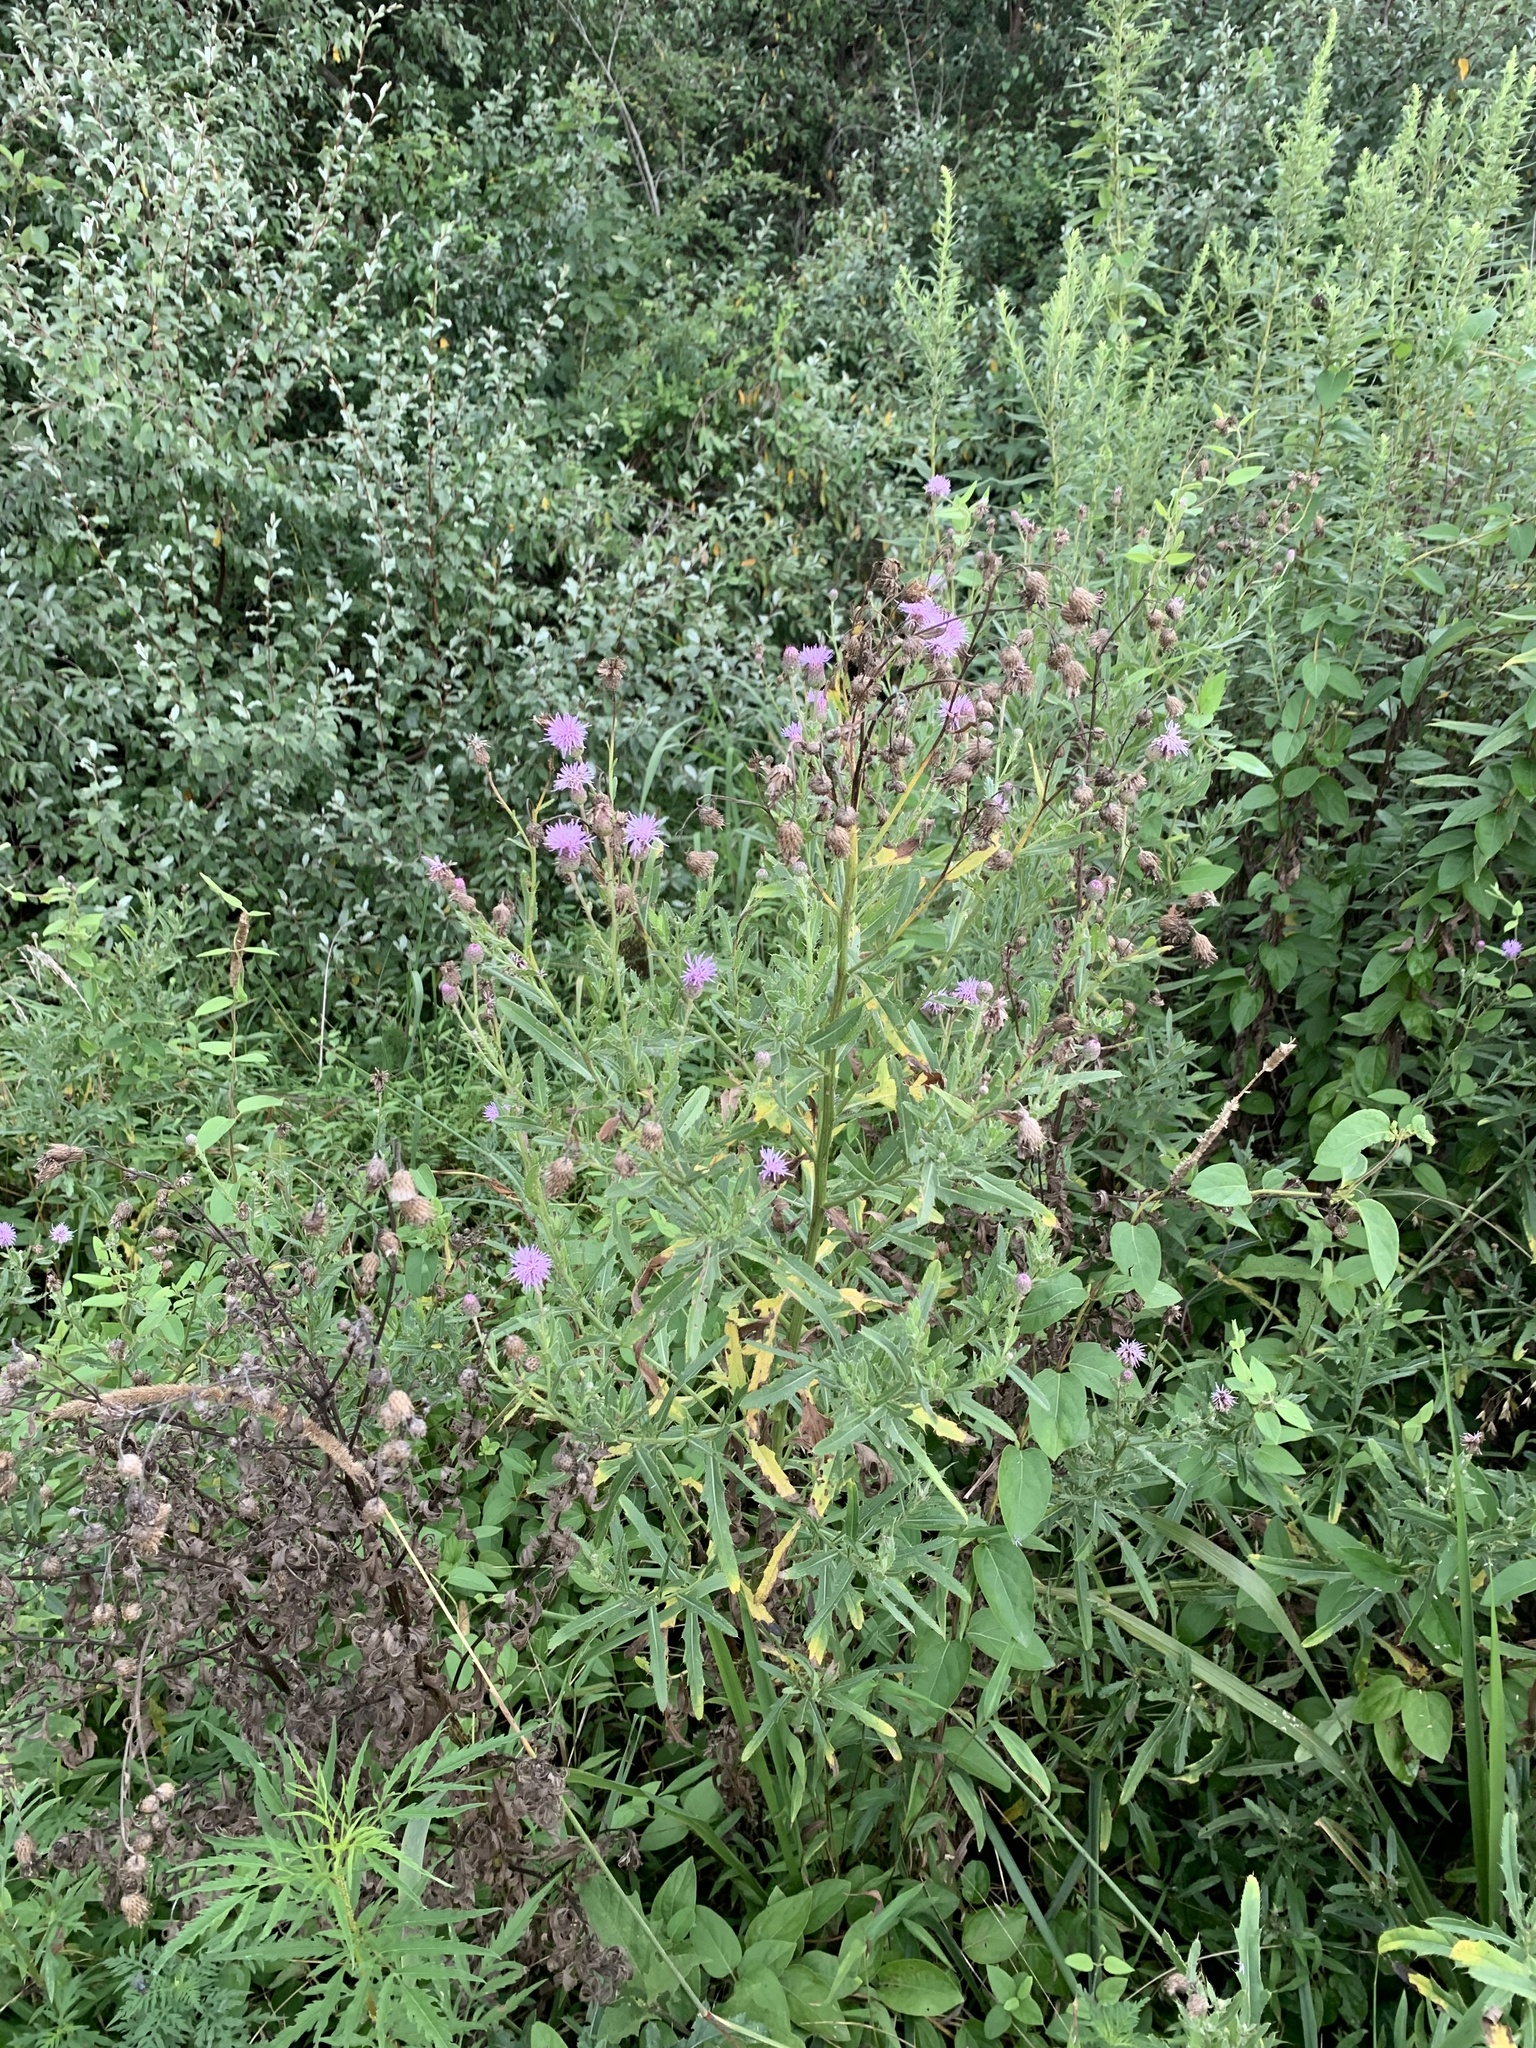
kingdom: Plantae
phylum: Tracheophyta
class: Magnoliopsida
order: Asterales
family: Asteraceae
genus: Cirsium
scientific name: Cirsium arvense
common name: Creeping thistle
